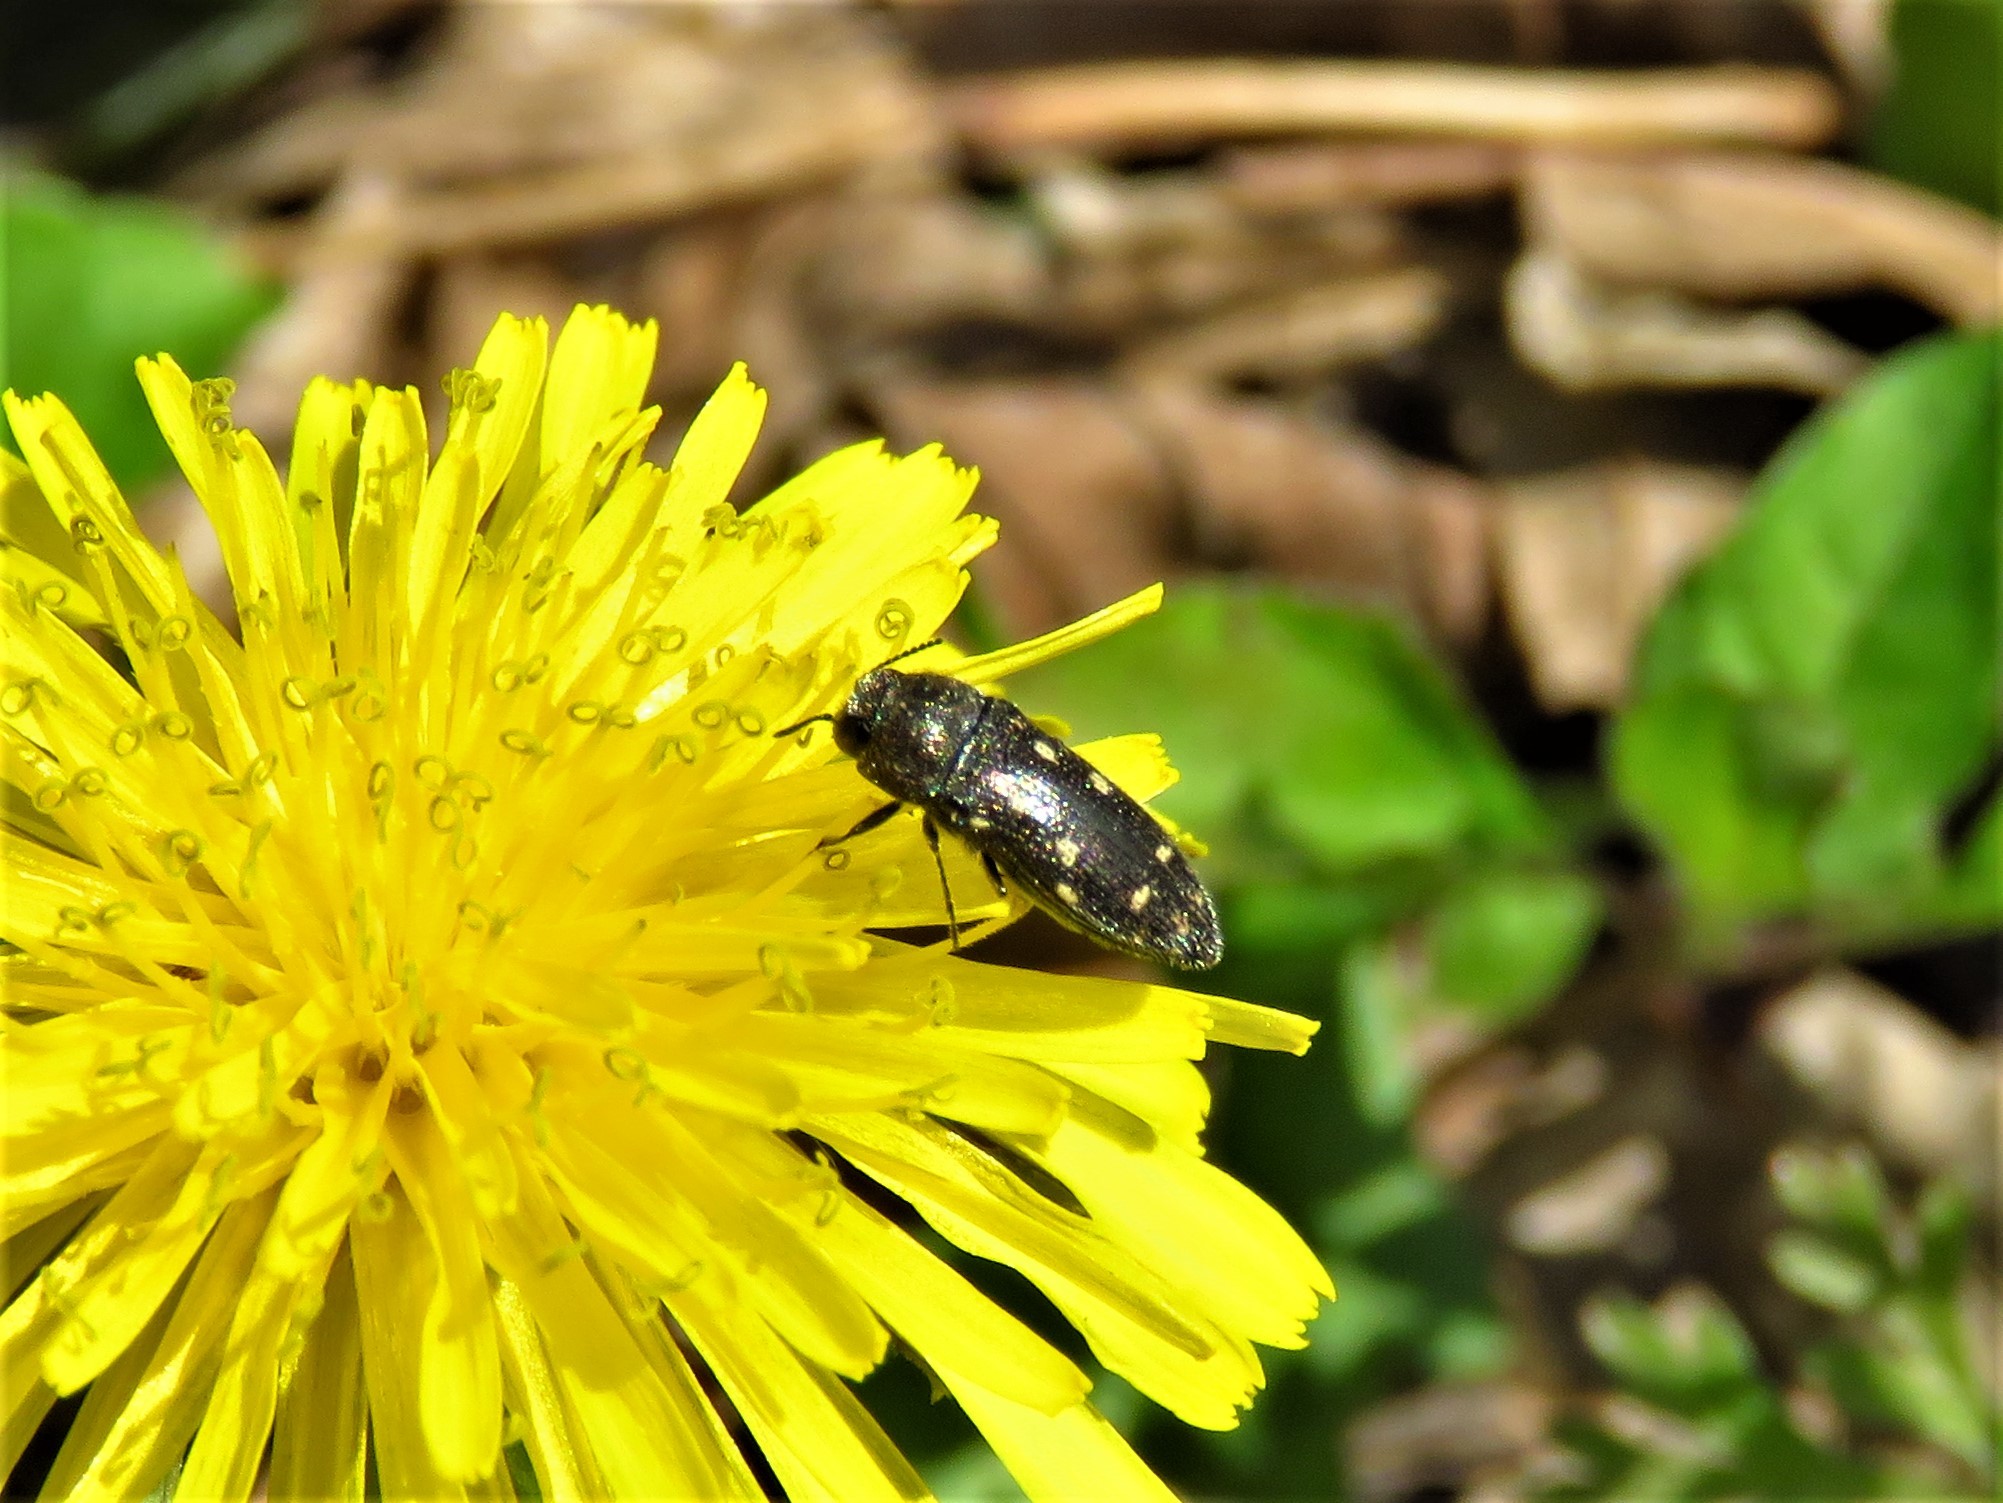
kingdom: Animalia
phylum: Arthropoda
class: Insecta
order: Coleoptera
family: Buprestidae
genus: Acmaeodera
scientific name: Acmaeodera tubulus
